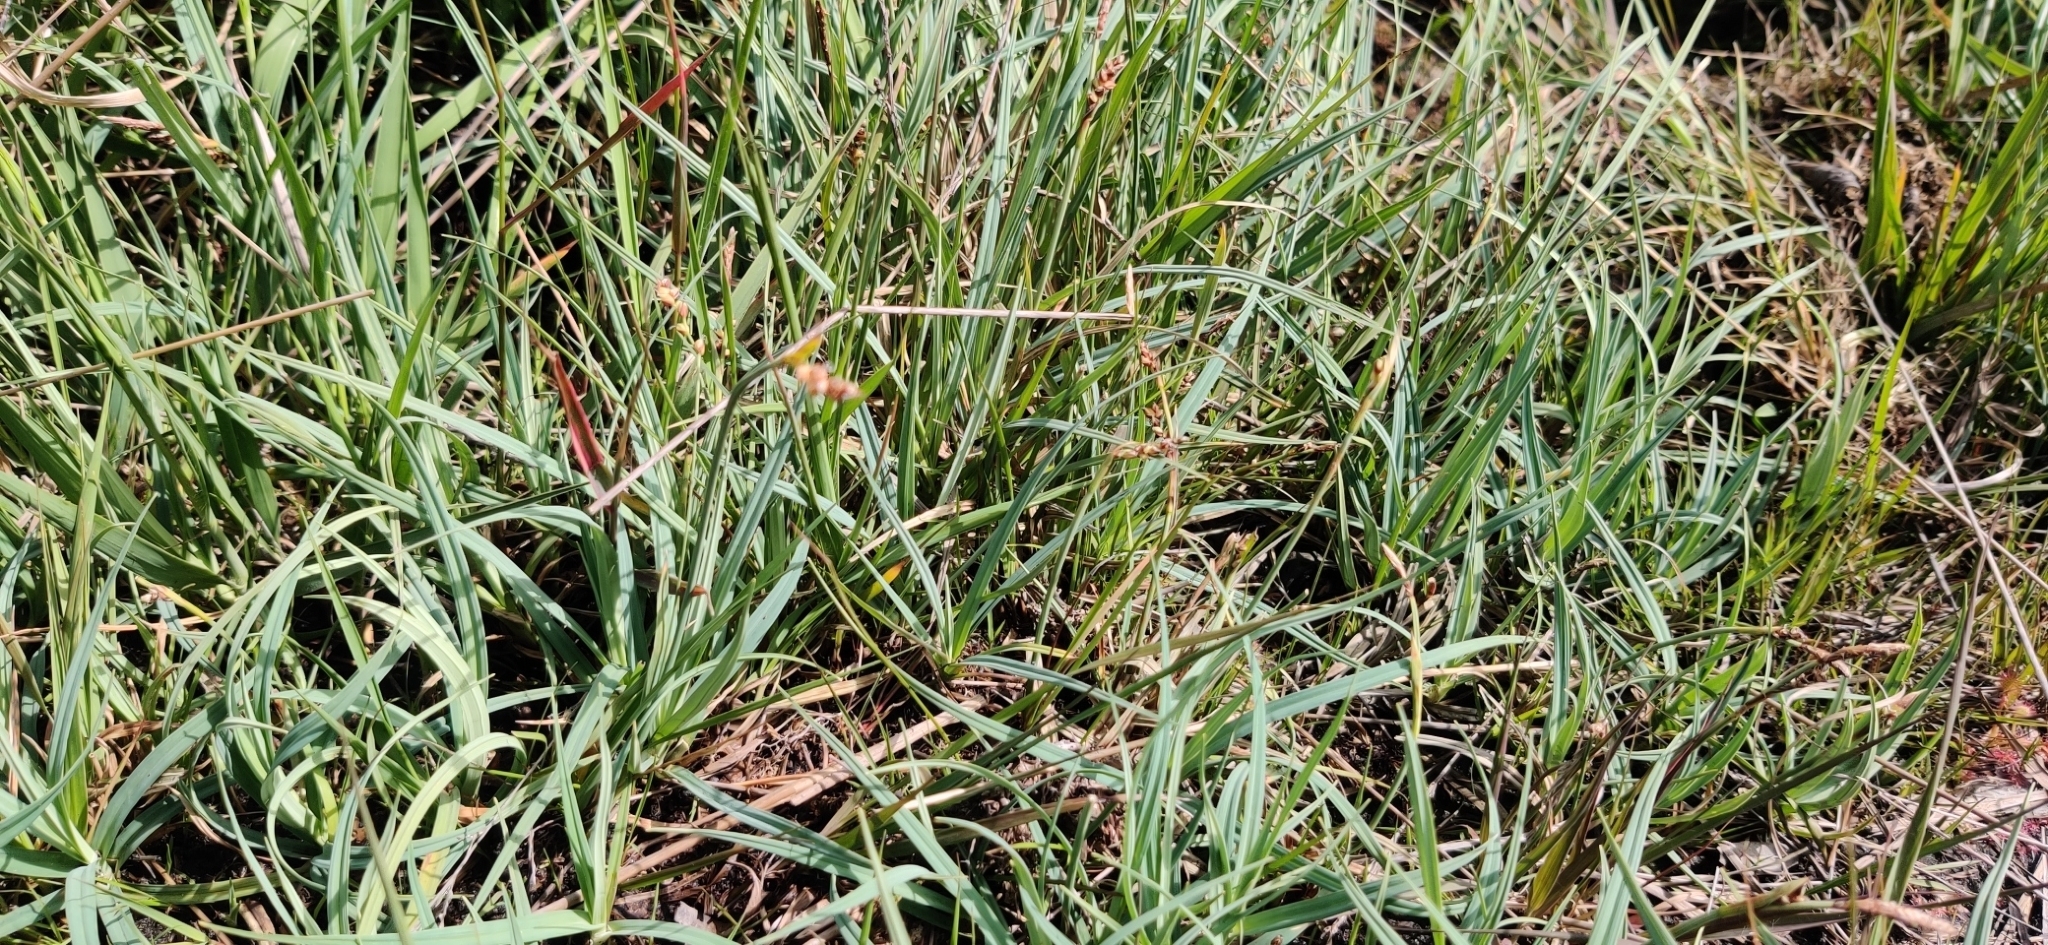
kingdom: Plantae
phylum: Tracheophyta
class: Liliopsida
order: Poales
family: Cyperaceae
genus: Carex
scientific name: Carex panicea
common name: Carnation sedge
